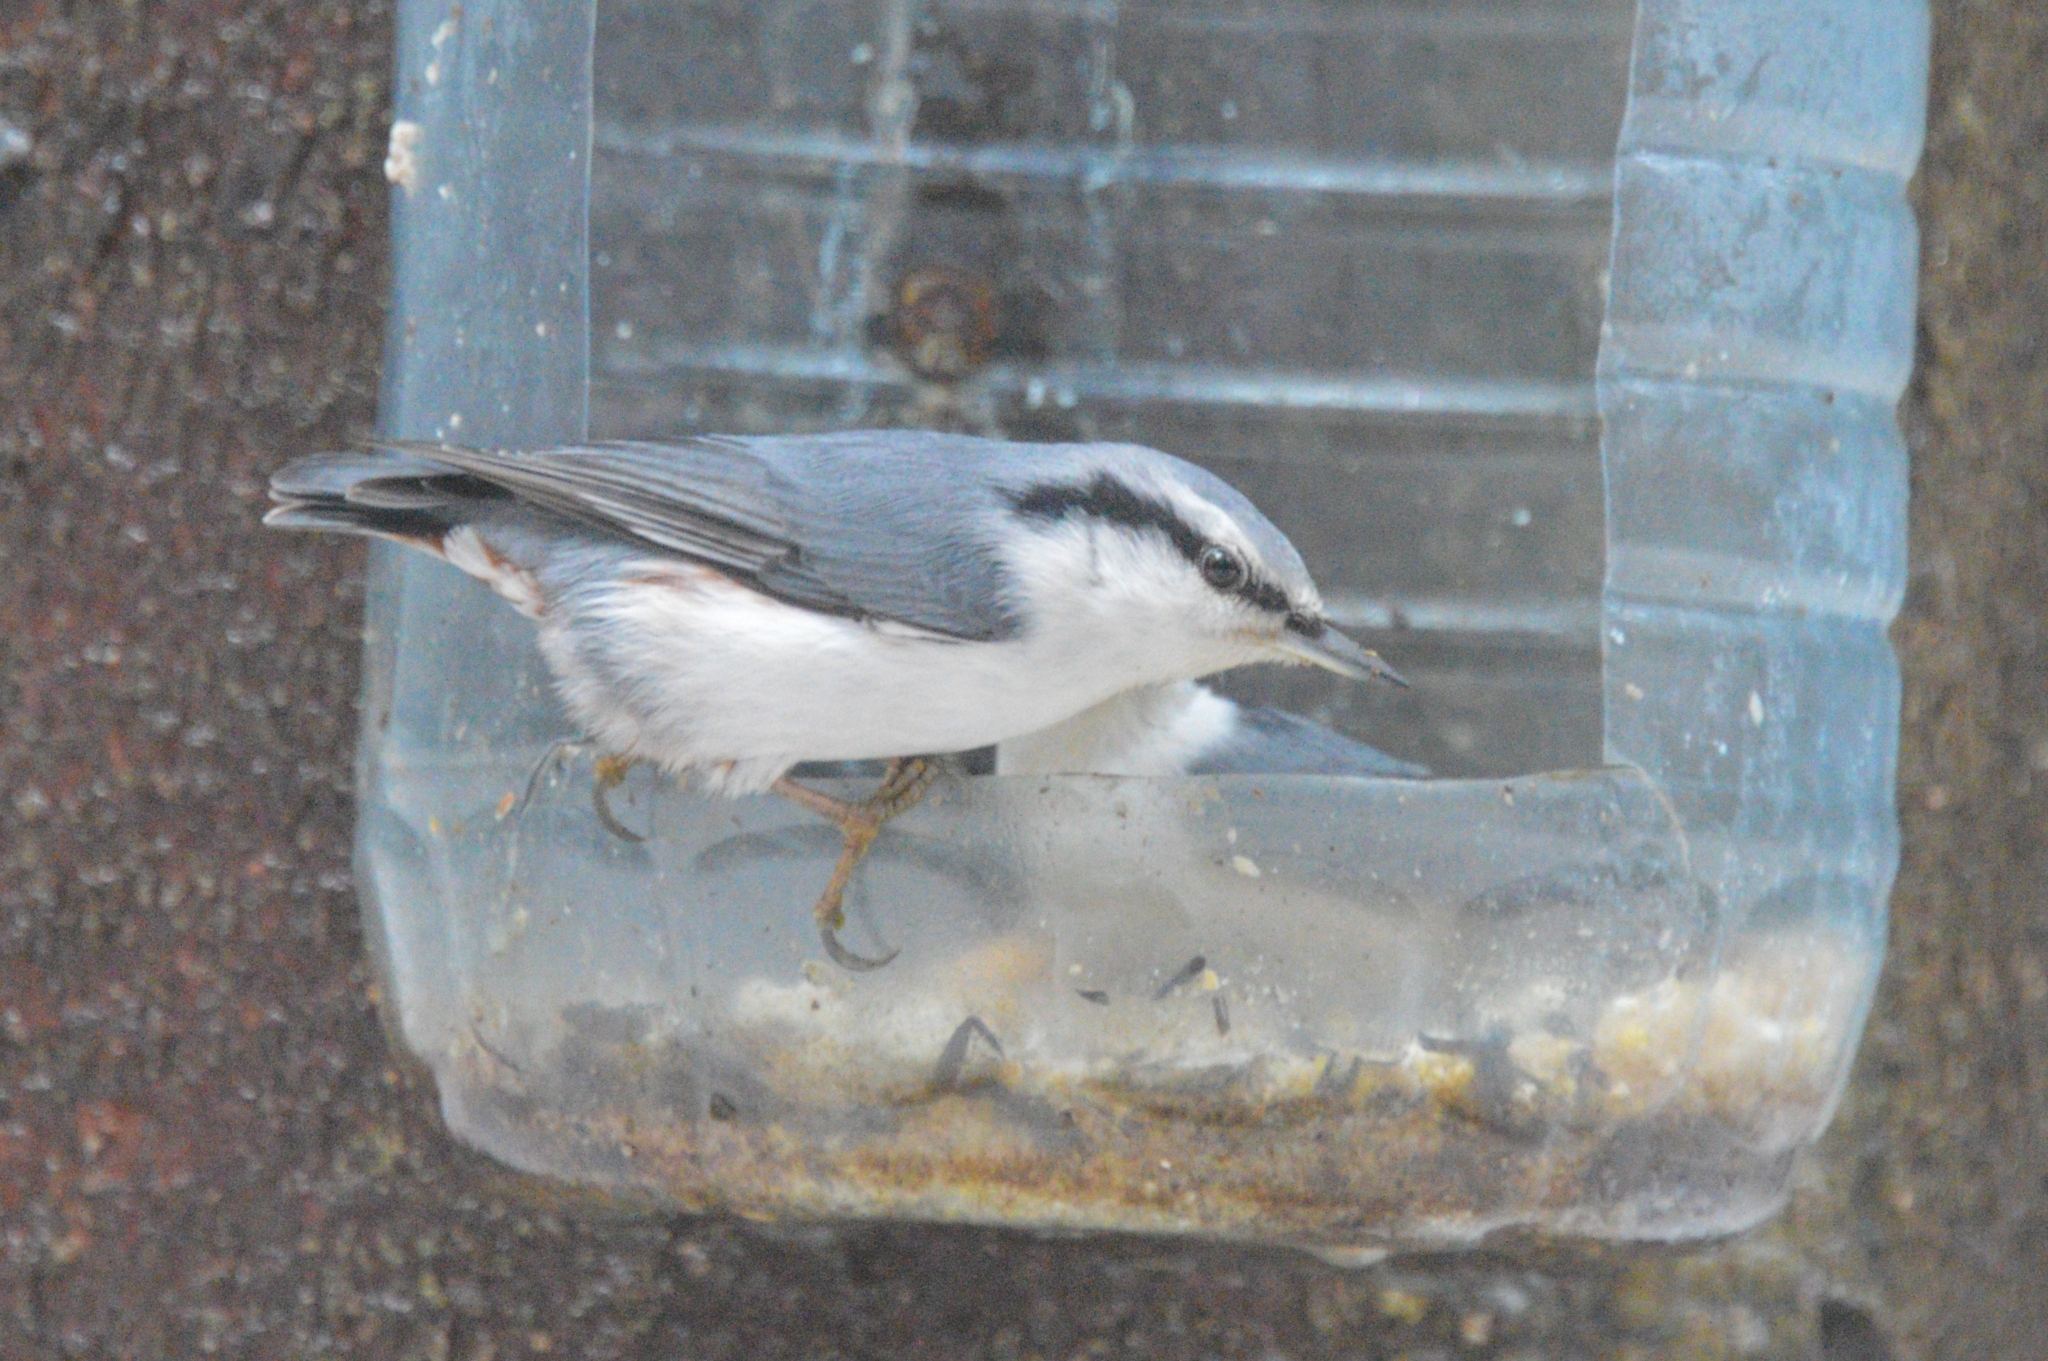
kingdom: Animalia
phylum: Chordata
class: Aves
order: Passeriformes
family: Sittidae
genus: Sitta
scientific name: Sitta europaea
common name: Eurasian nuthatch
